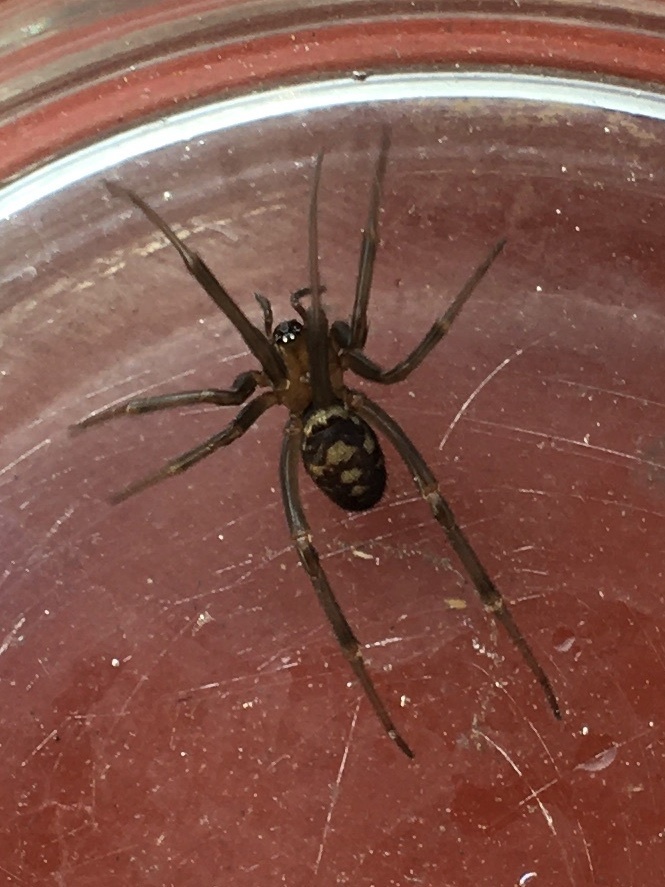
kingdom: Animalia
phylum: Arthropoda
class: Arachnida
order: Araneae
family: Theridiidae
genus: Steatoda
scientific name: Steatoda grossa
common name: False black widow
